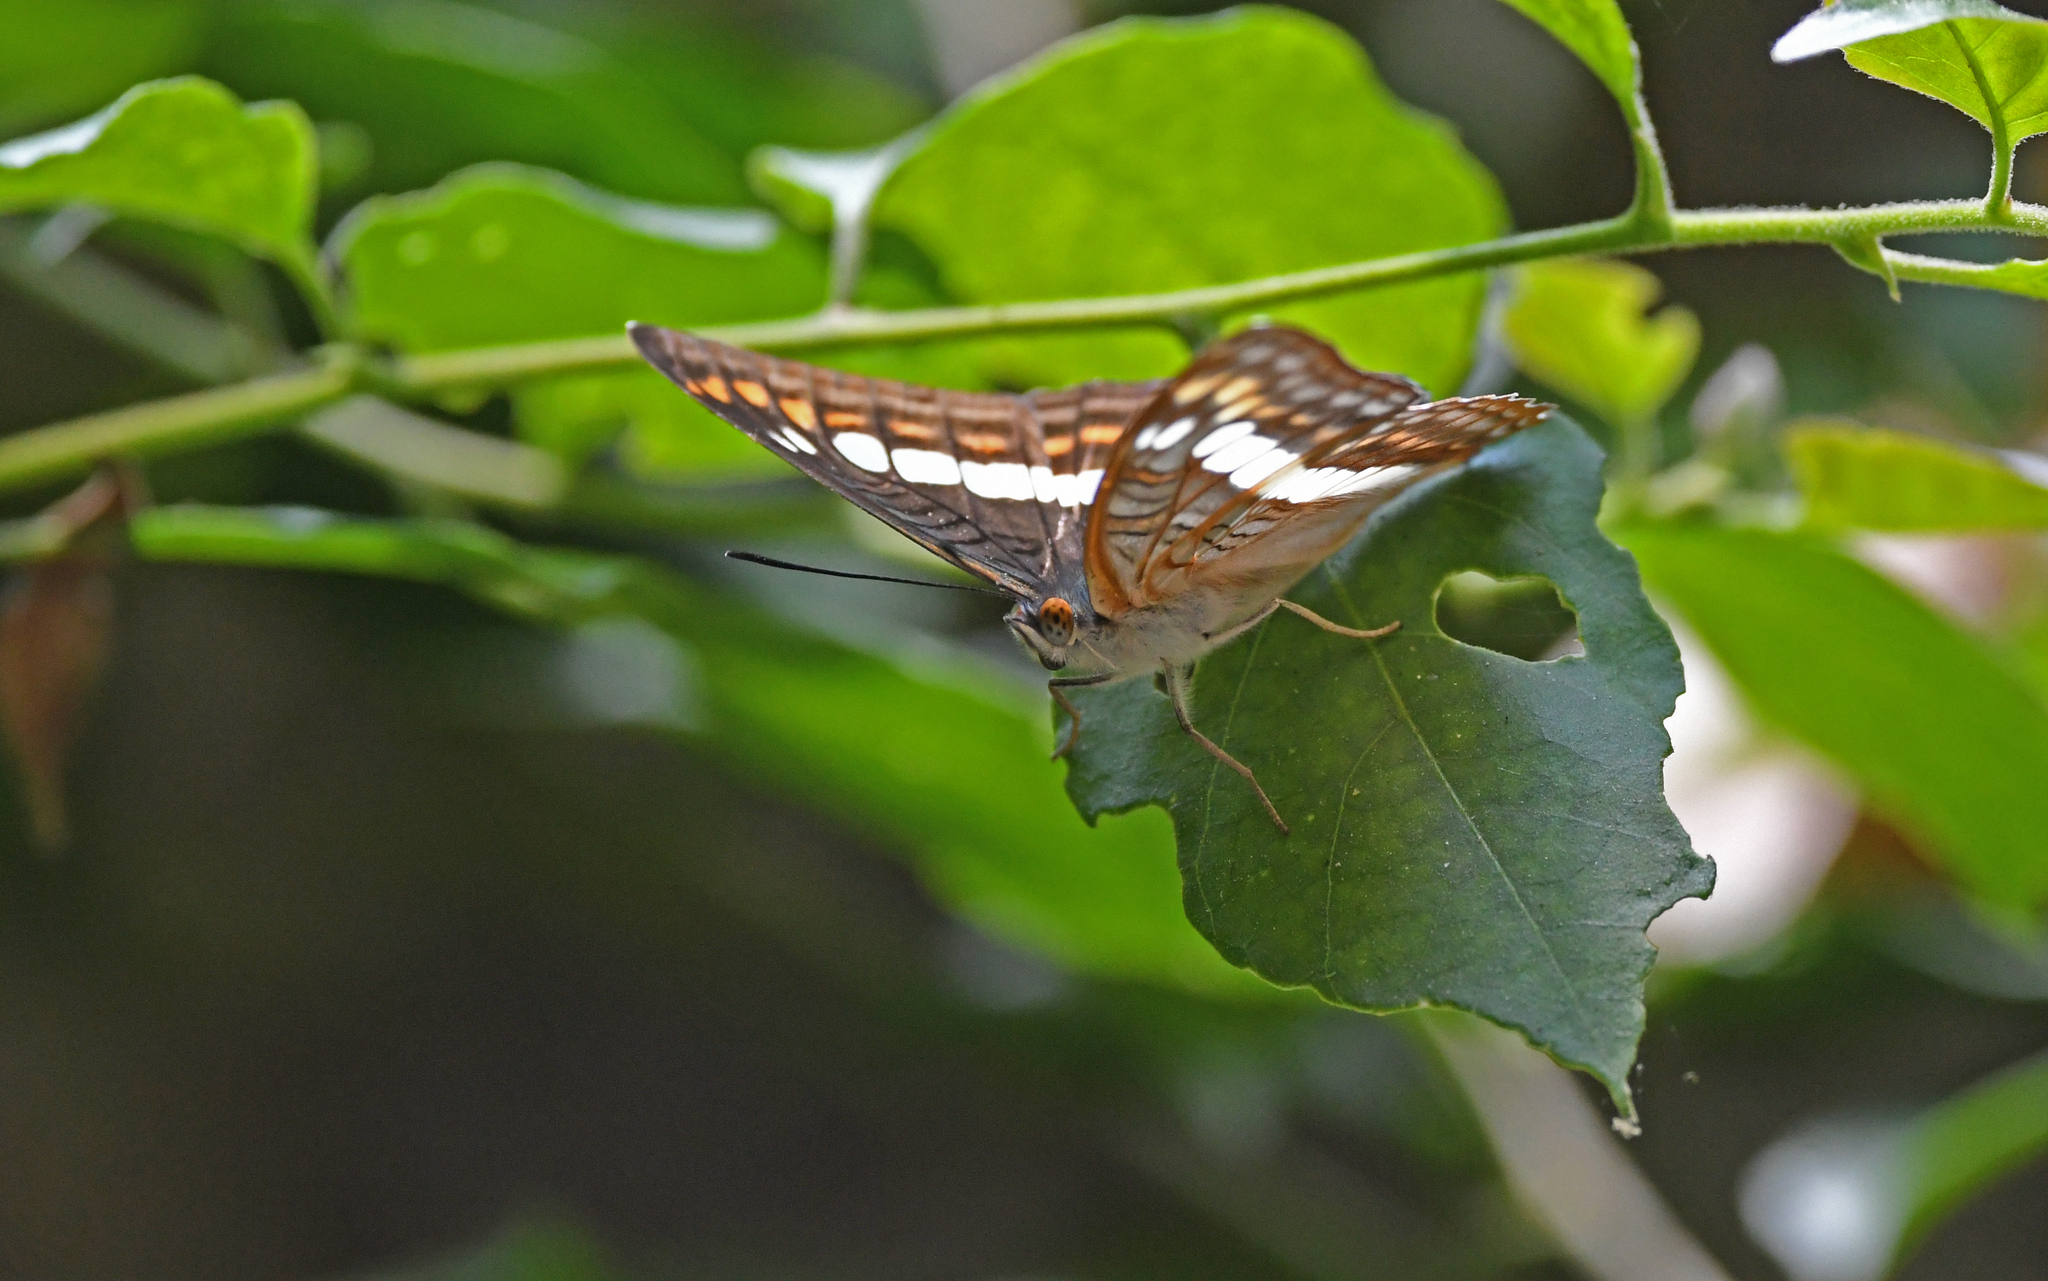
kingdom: Animalia
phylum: Arthropoda
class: Insecta
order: Lepidoptera
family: Nymphalidae
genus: Limenitis
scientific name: Limenitis alala
